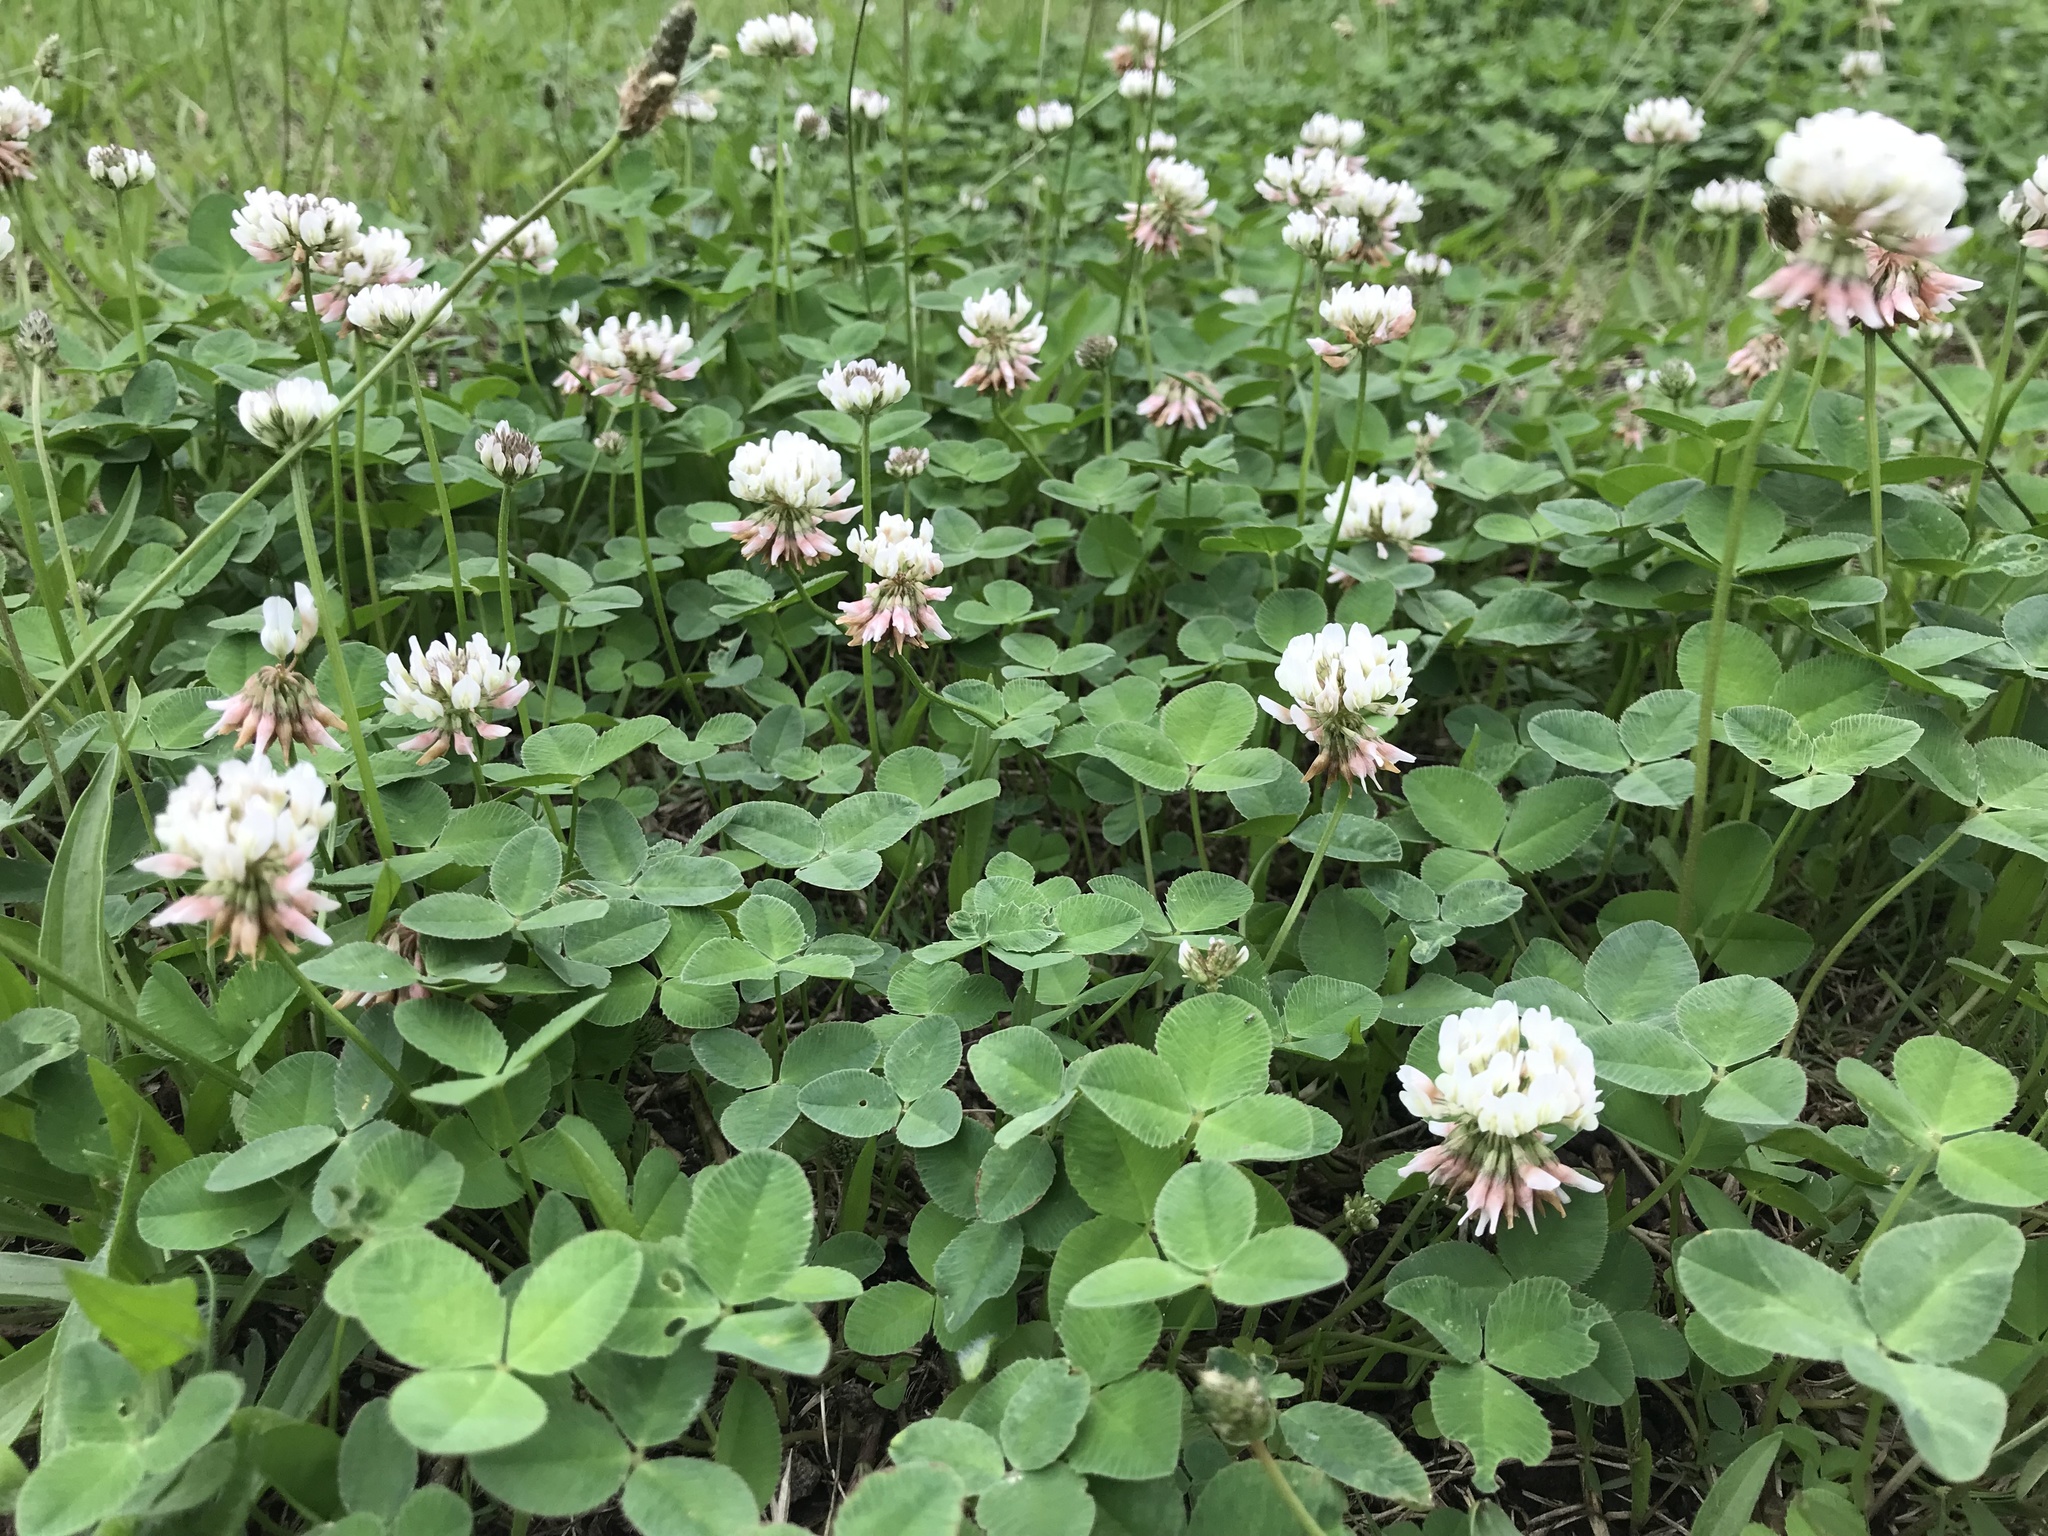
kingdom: Plantae
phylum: Tracheophyta
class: Magnoliopsida
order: Fabales
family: Fabaceae
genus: Trifolium
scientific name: Trifolium repens
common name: White clover
